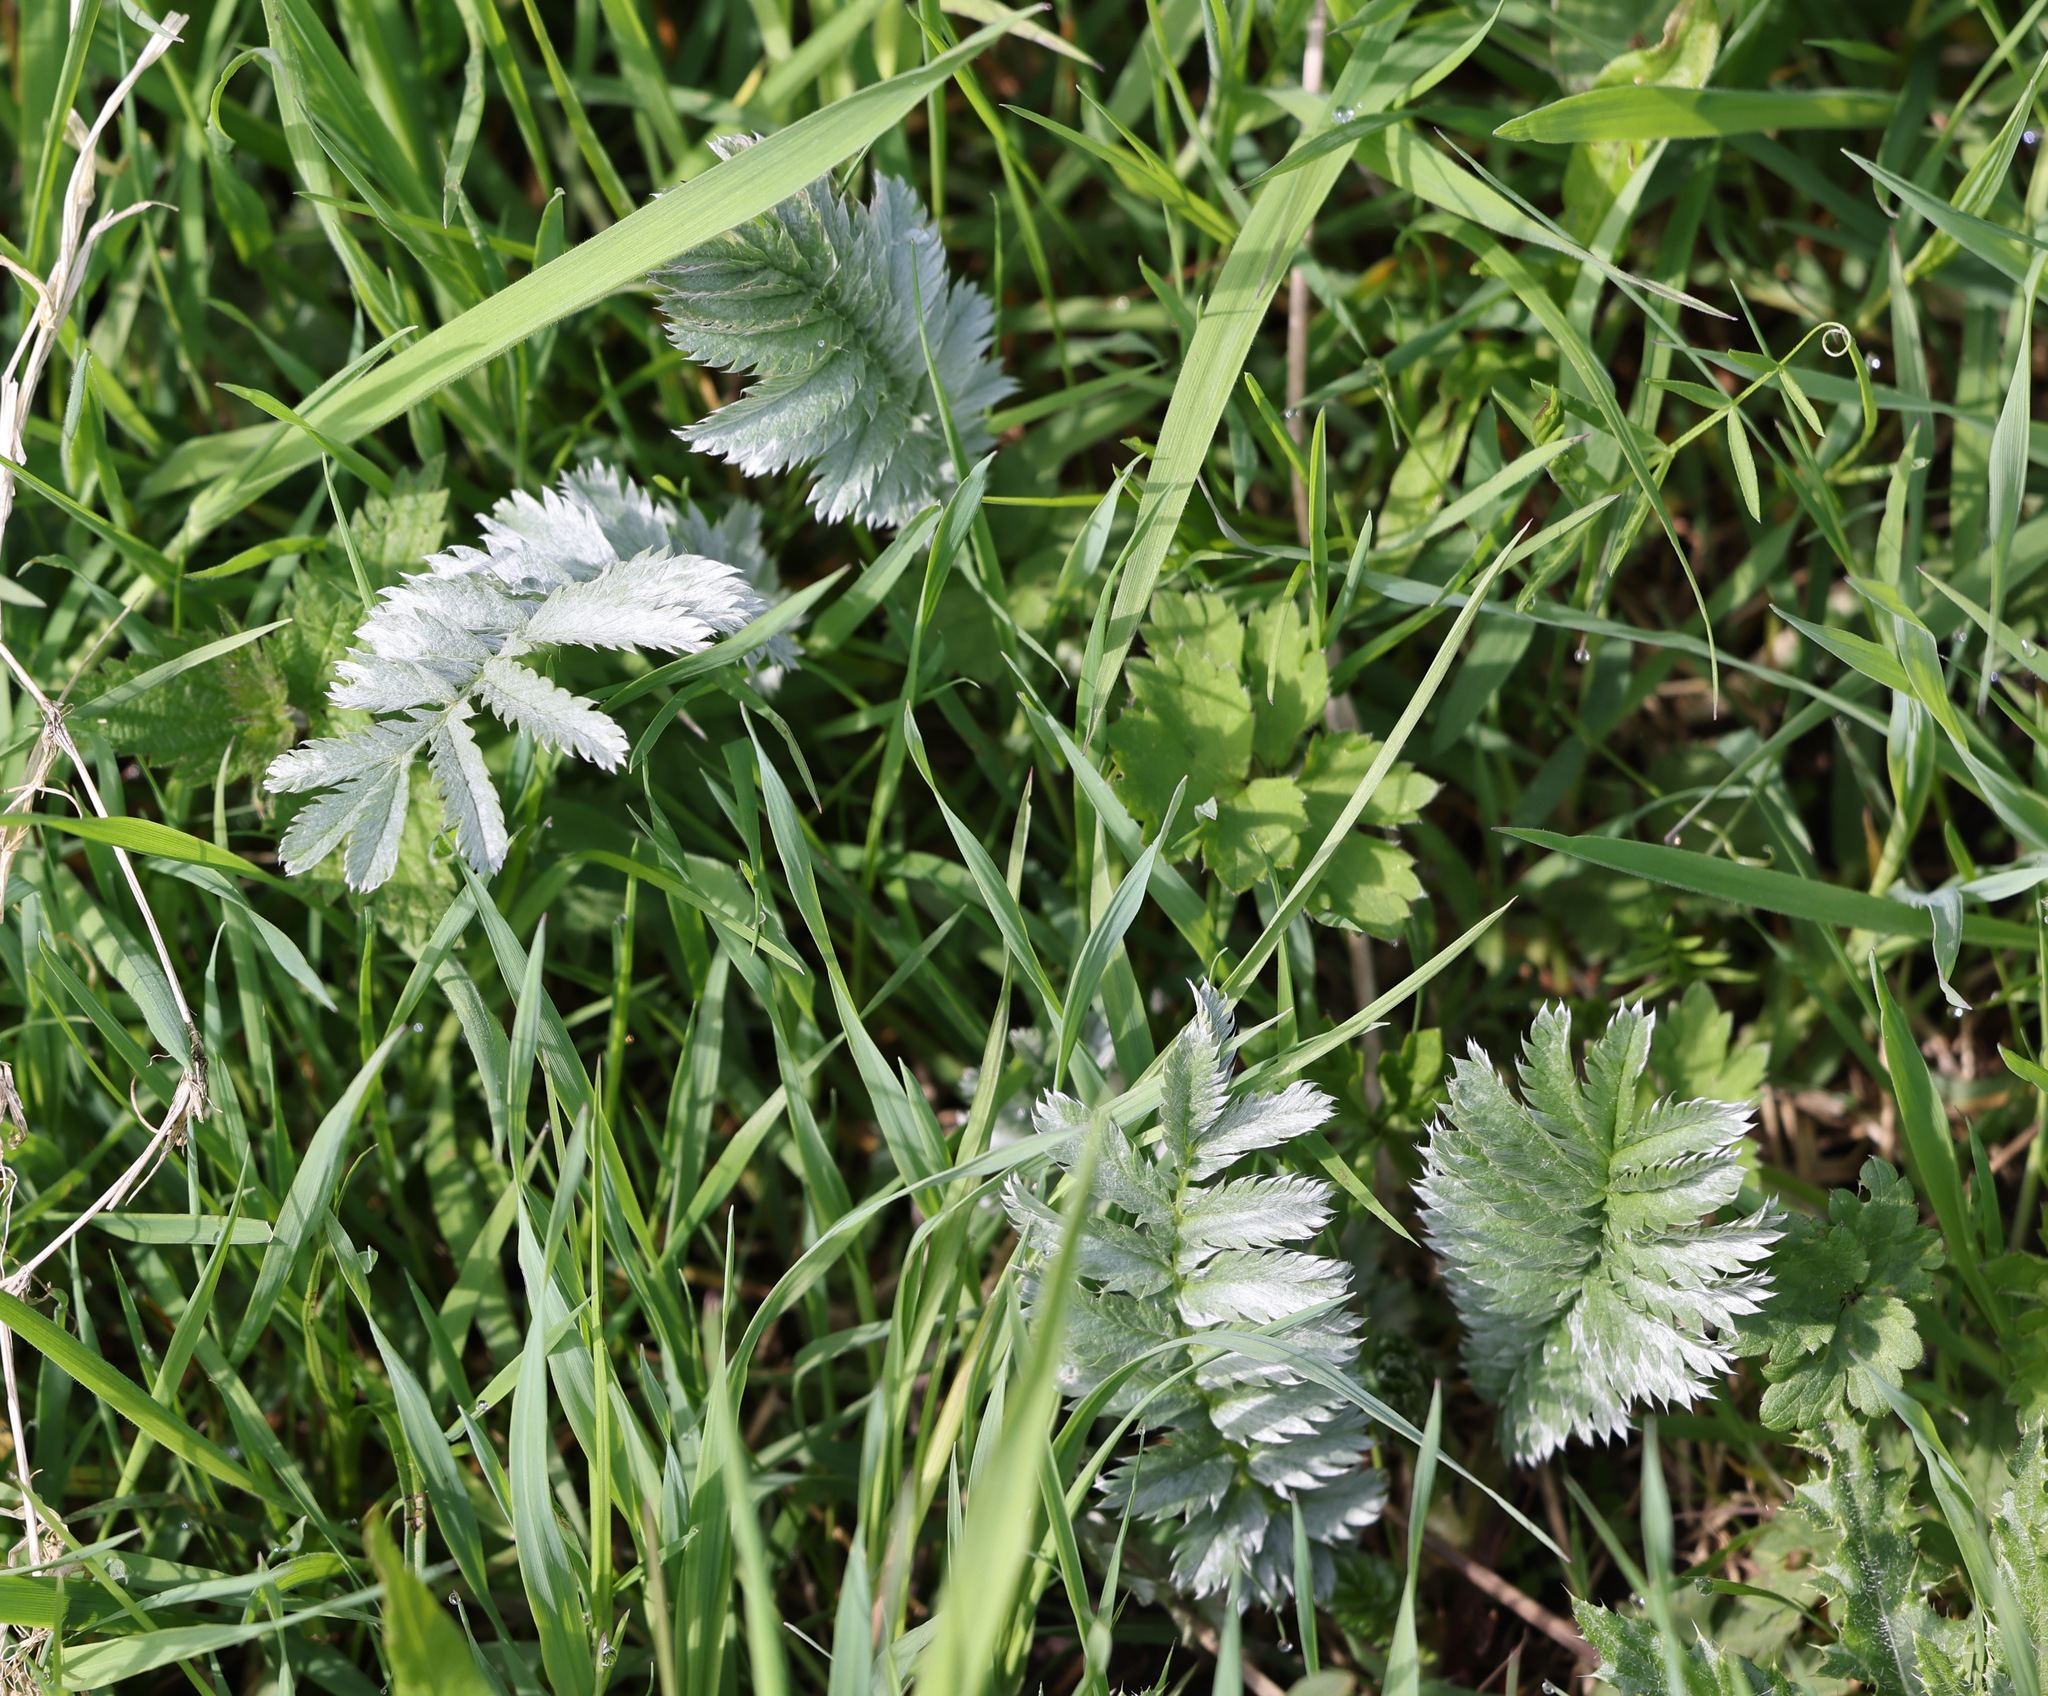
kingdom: Plantae
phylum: Tracheophyta
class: Magnoliopsida
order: Rosales
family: Rosaceae
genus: Argentina
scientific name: Argentina anserina
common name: Common silverweed
